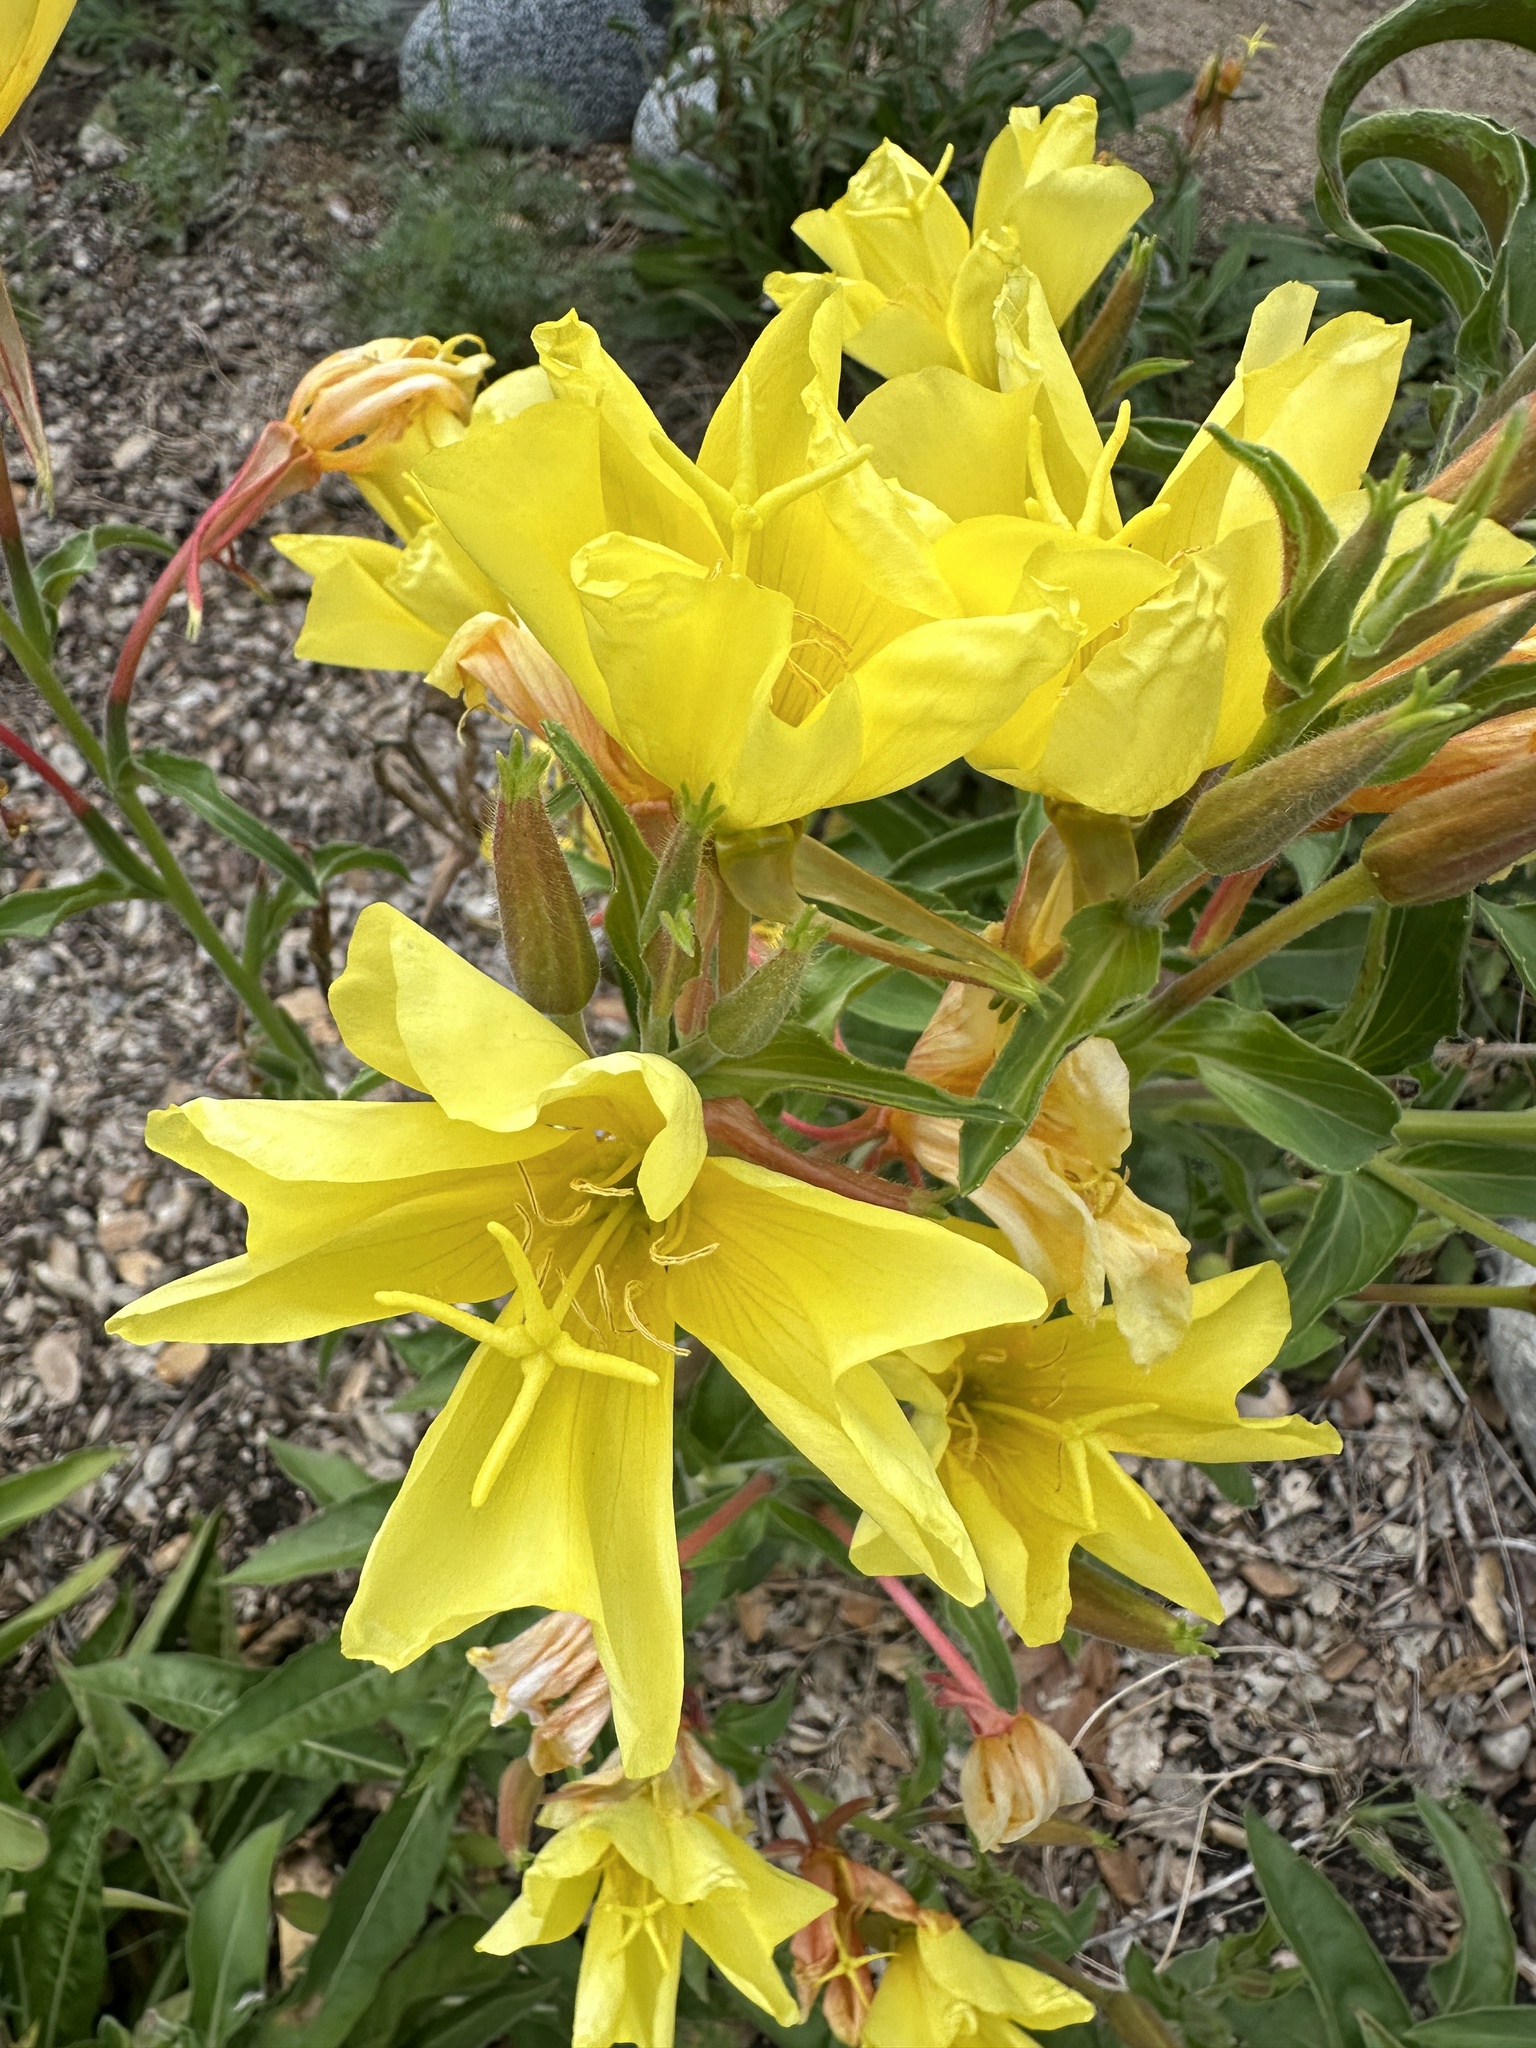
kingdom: Plantae
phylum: Tracheophyta
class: Magnoliopsida
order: Myrtales
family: Onagraceae
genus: Oenothera
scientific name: Oenothera elata
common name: Hooker's evening-primrose
